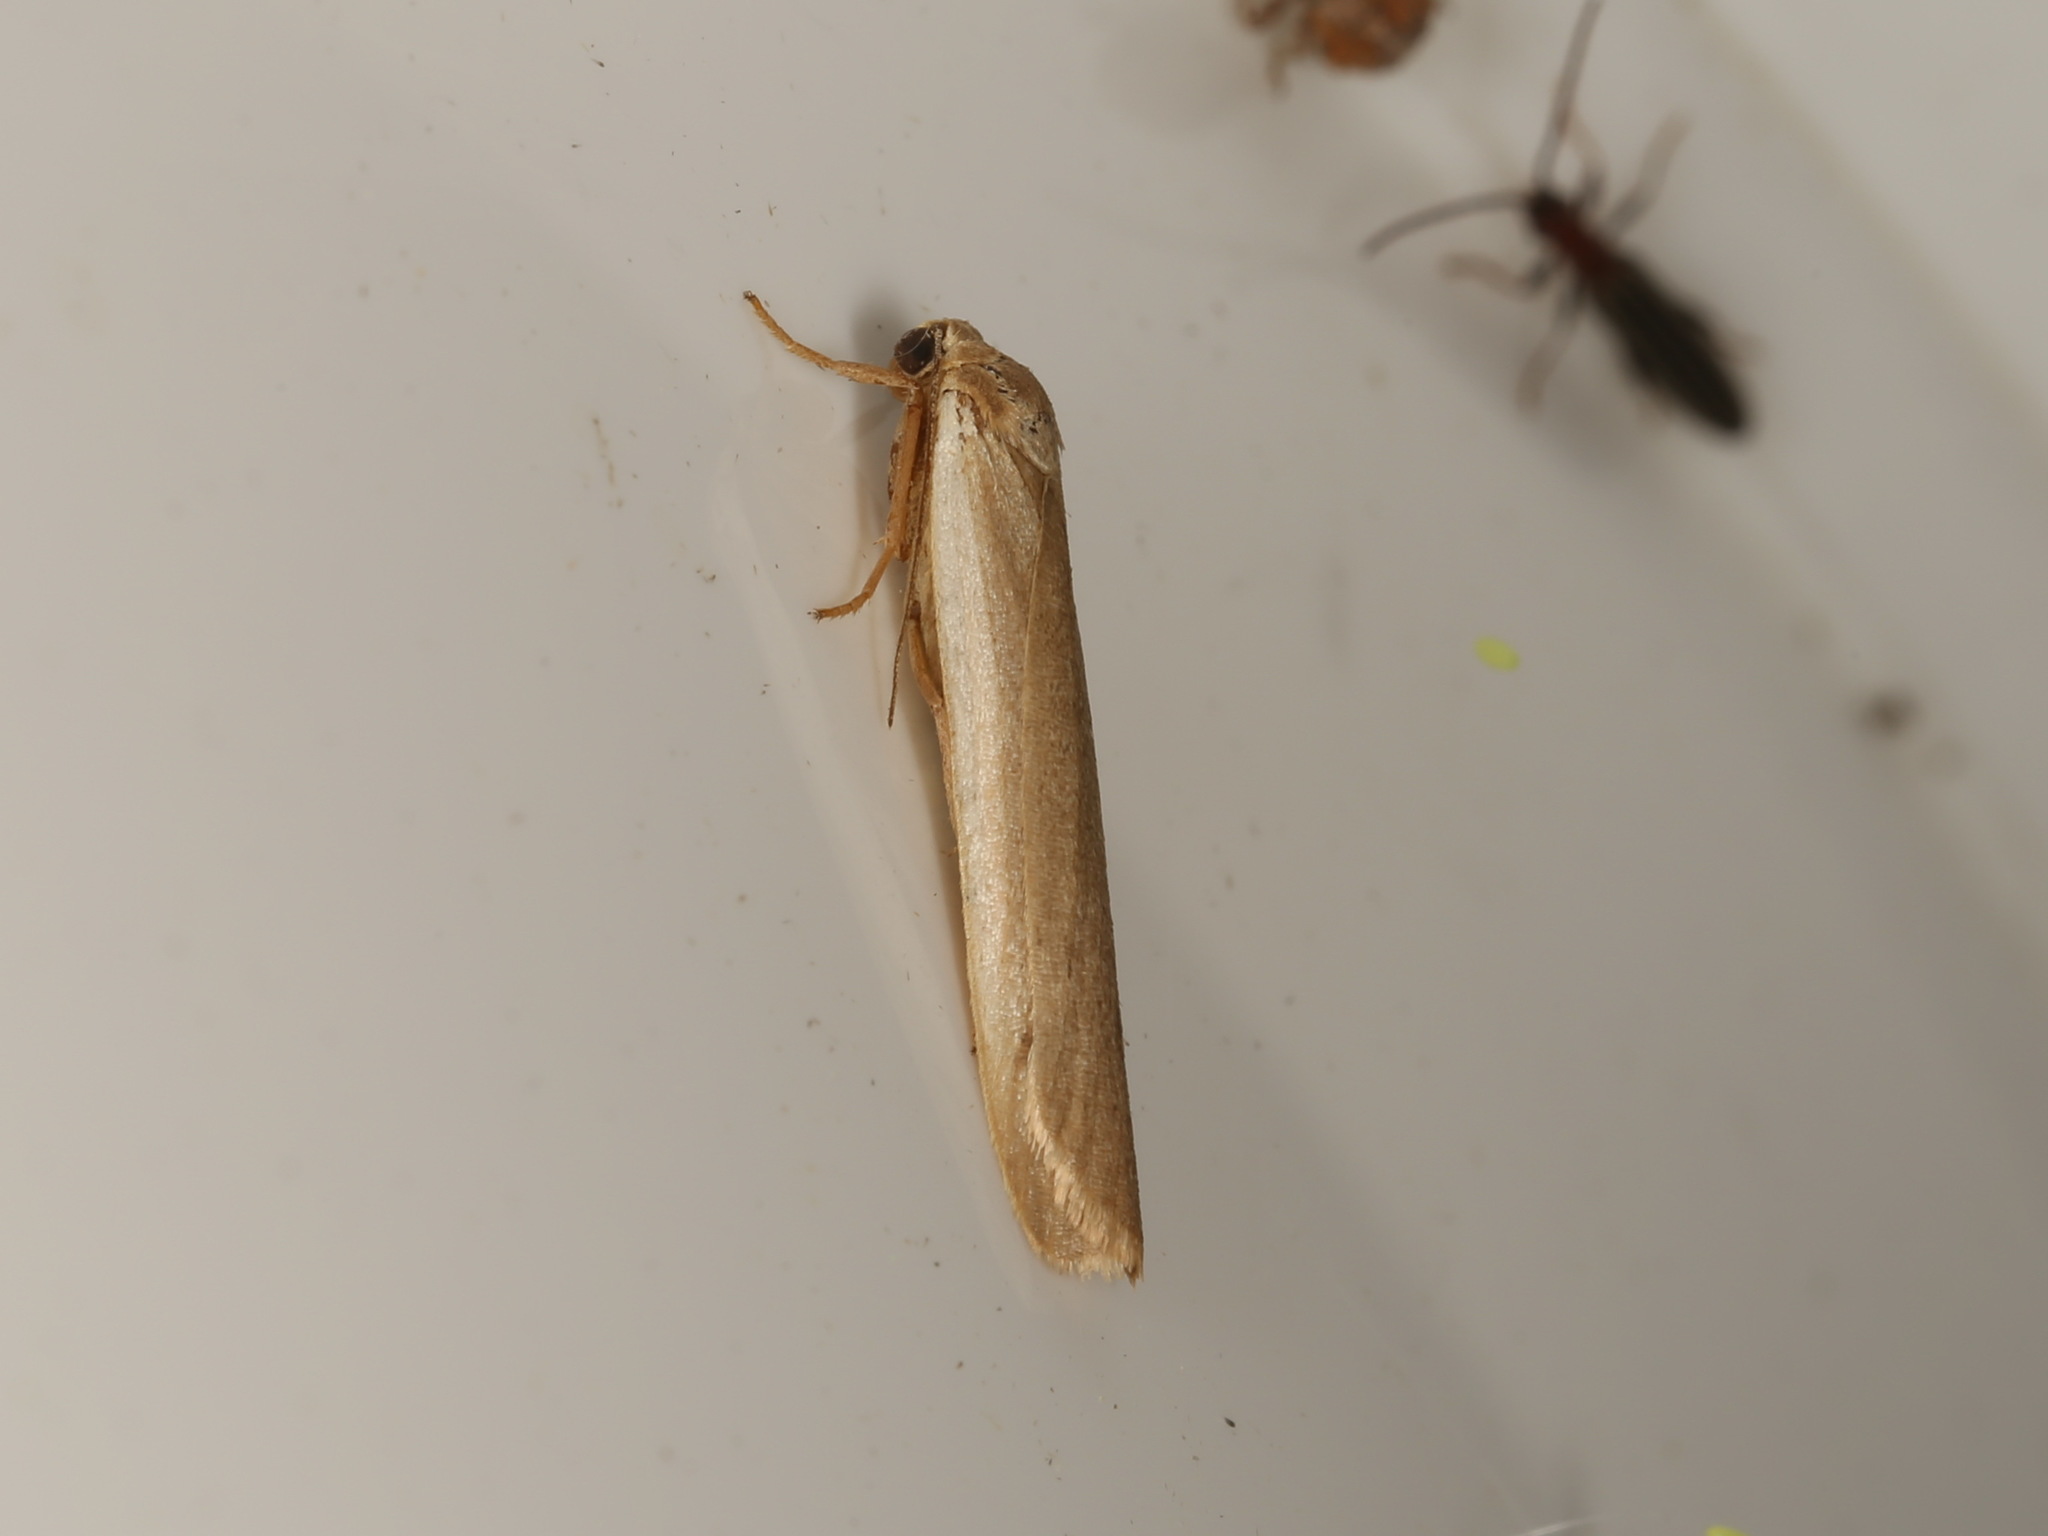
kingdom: Animalia
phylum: Arthropoda
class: Insecta
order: Lepidoptera
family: Erebidae
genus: Scoliacma
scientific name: Scoliacma nana
